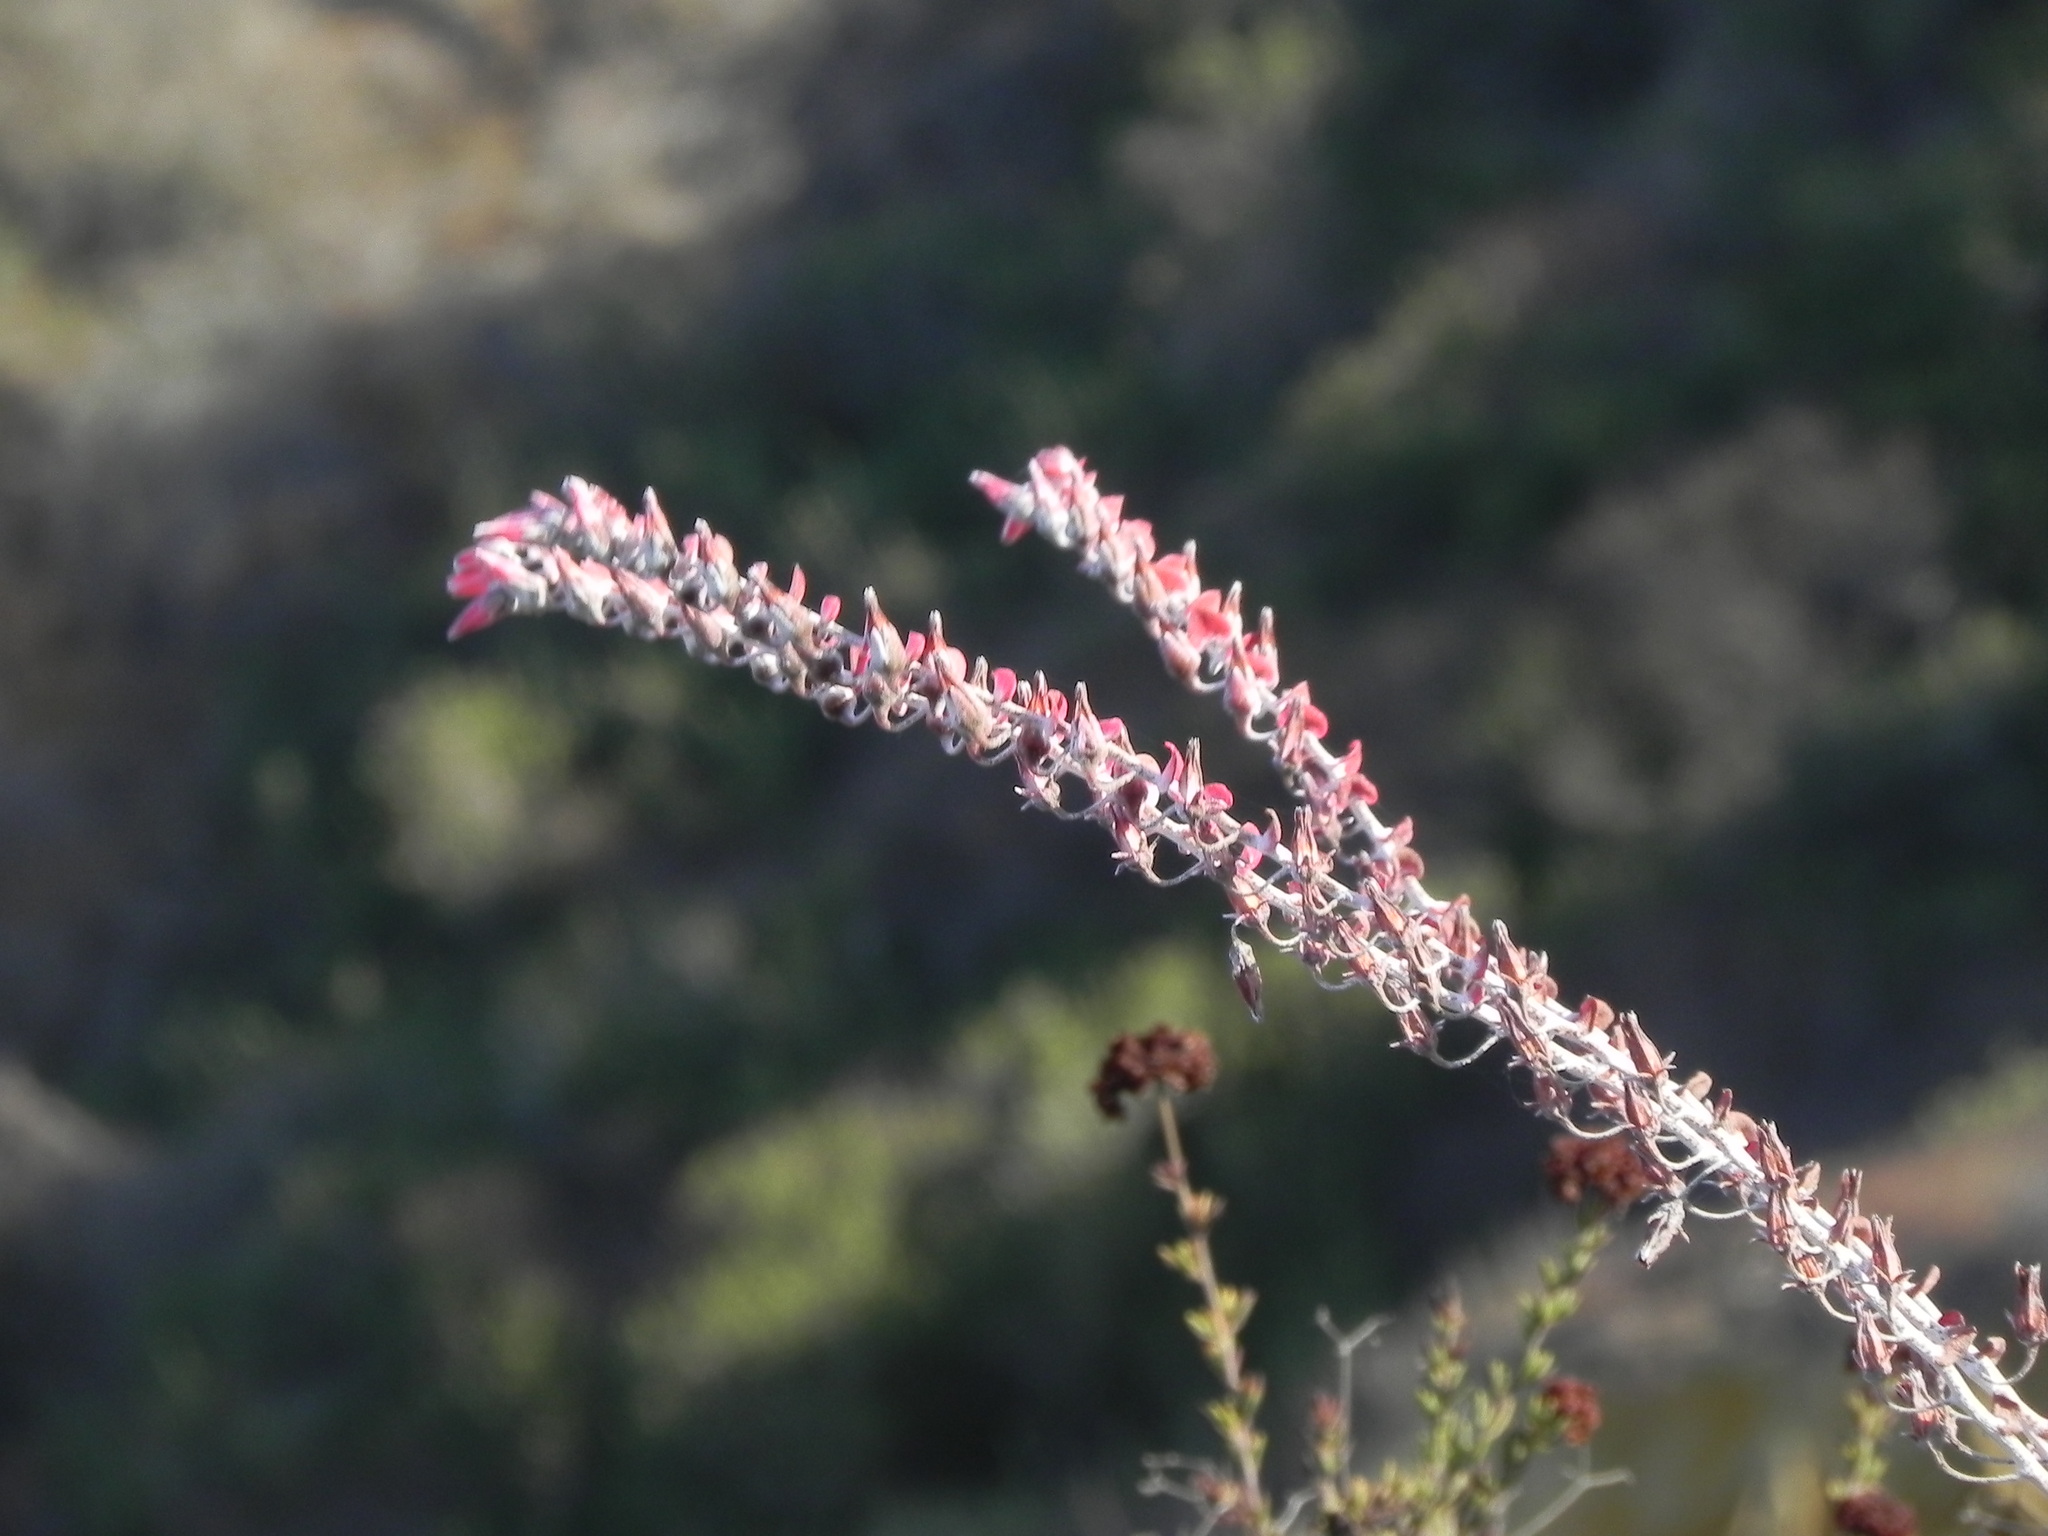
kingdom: Plantae
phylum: Tracheophyta
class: Magnoliopsida
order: Saxifragales
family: Crassulaceae
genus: Dudleya
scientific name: Dudleya pulverulenta
